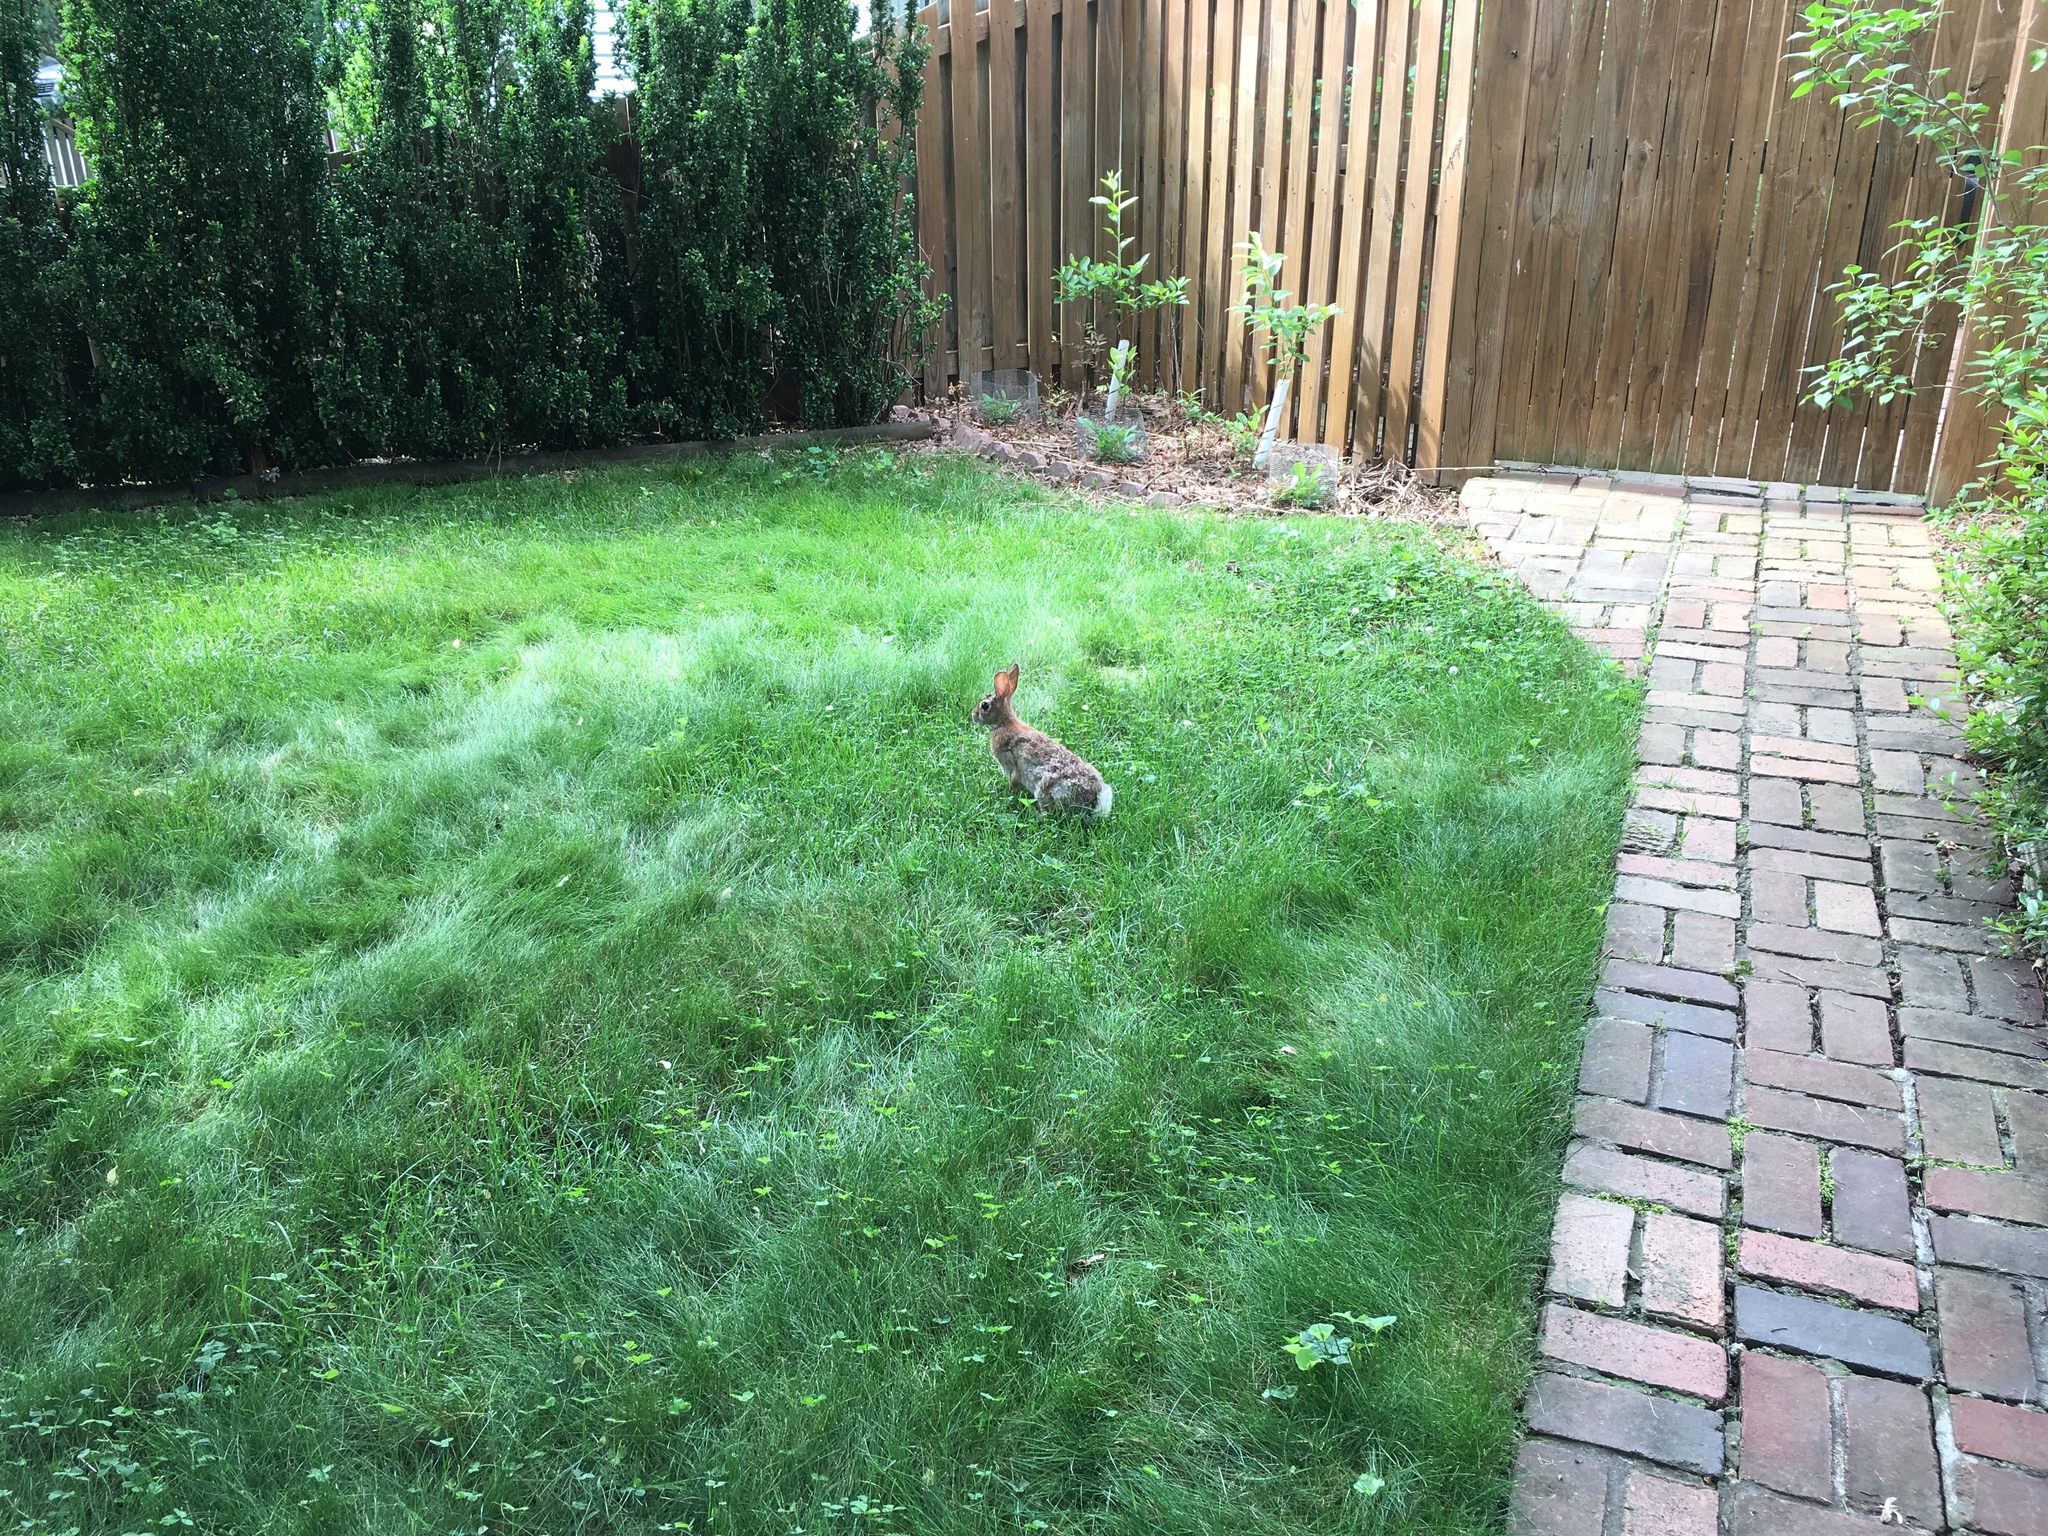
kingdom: Animalia
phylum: Chordata
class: Mammalia
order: Lagomorpha
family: Leporidae
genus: Sylvilagus
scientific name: Sylvilagus floridanus
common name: Eastern cottontail
